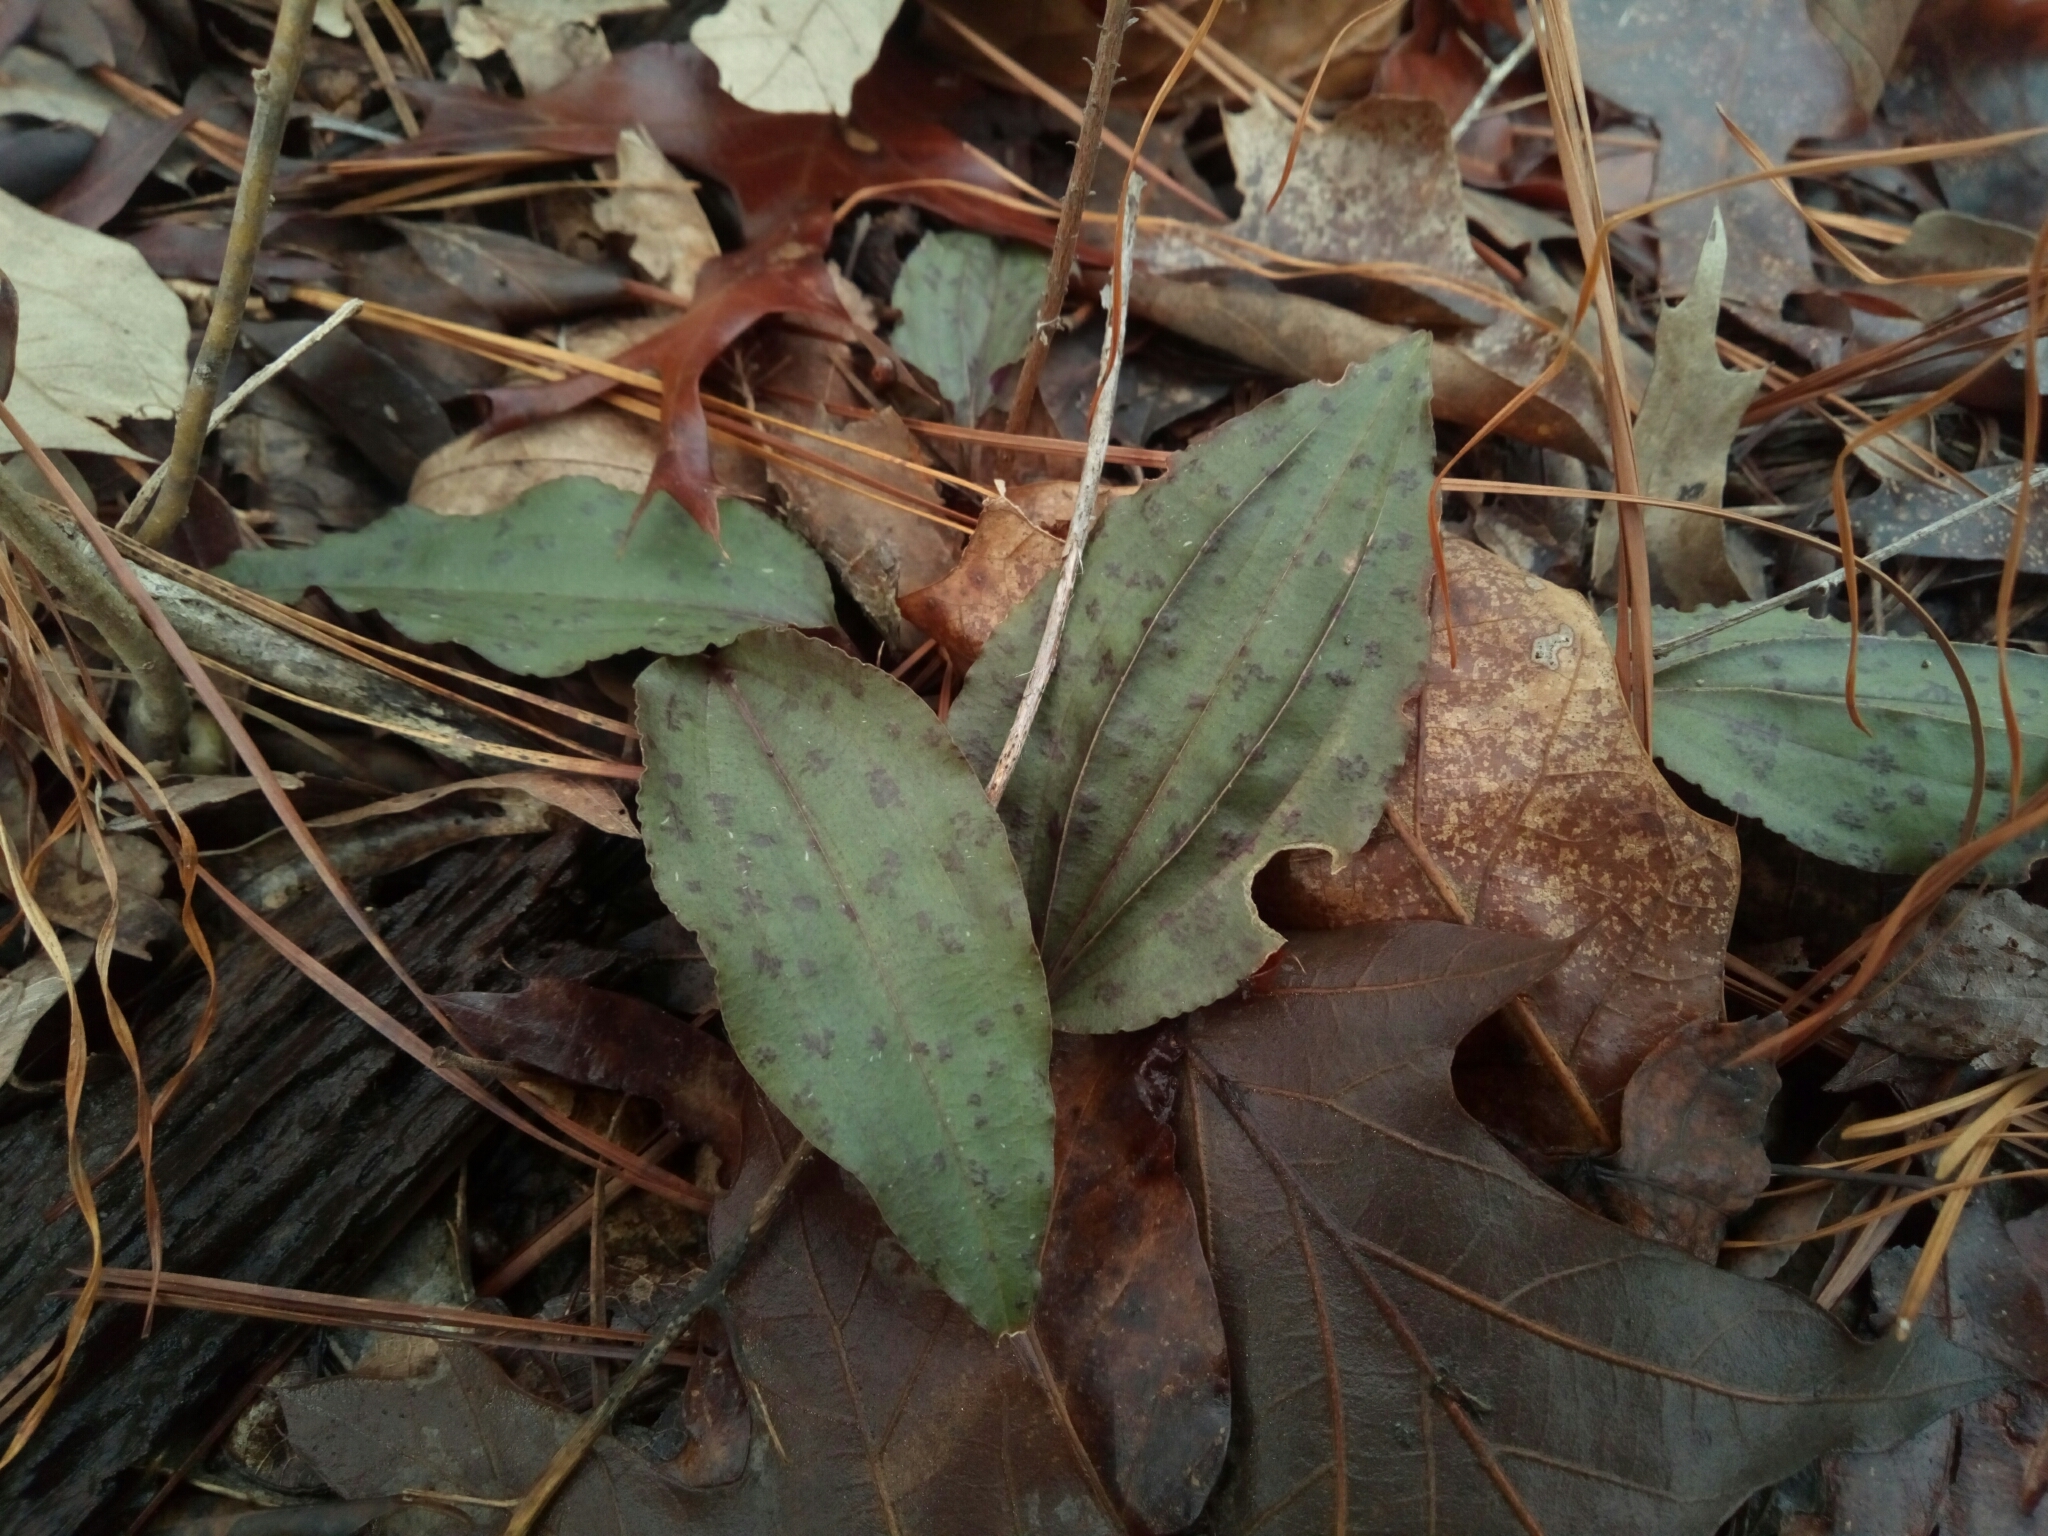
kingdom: Plantae
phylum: Tracheophyta
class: Liliopsida
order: Asparagales
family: Orchidaceae
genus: Tipularia
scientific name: Tipularia discolor
